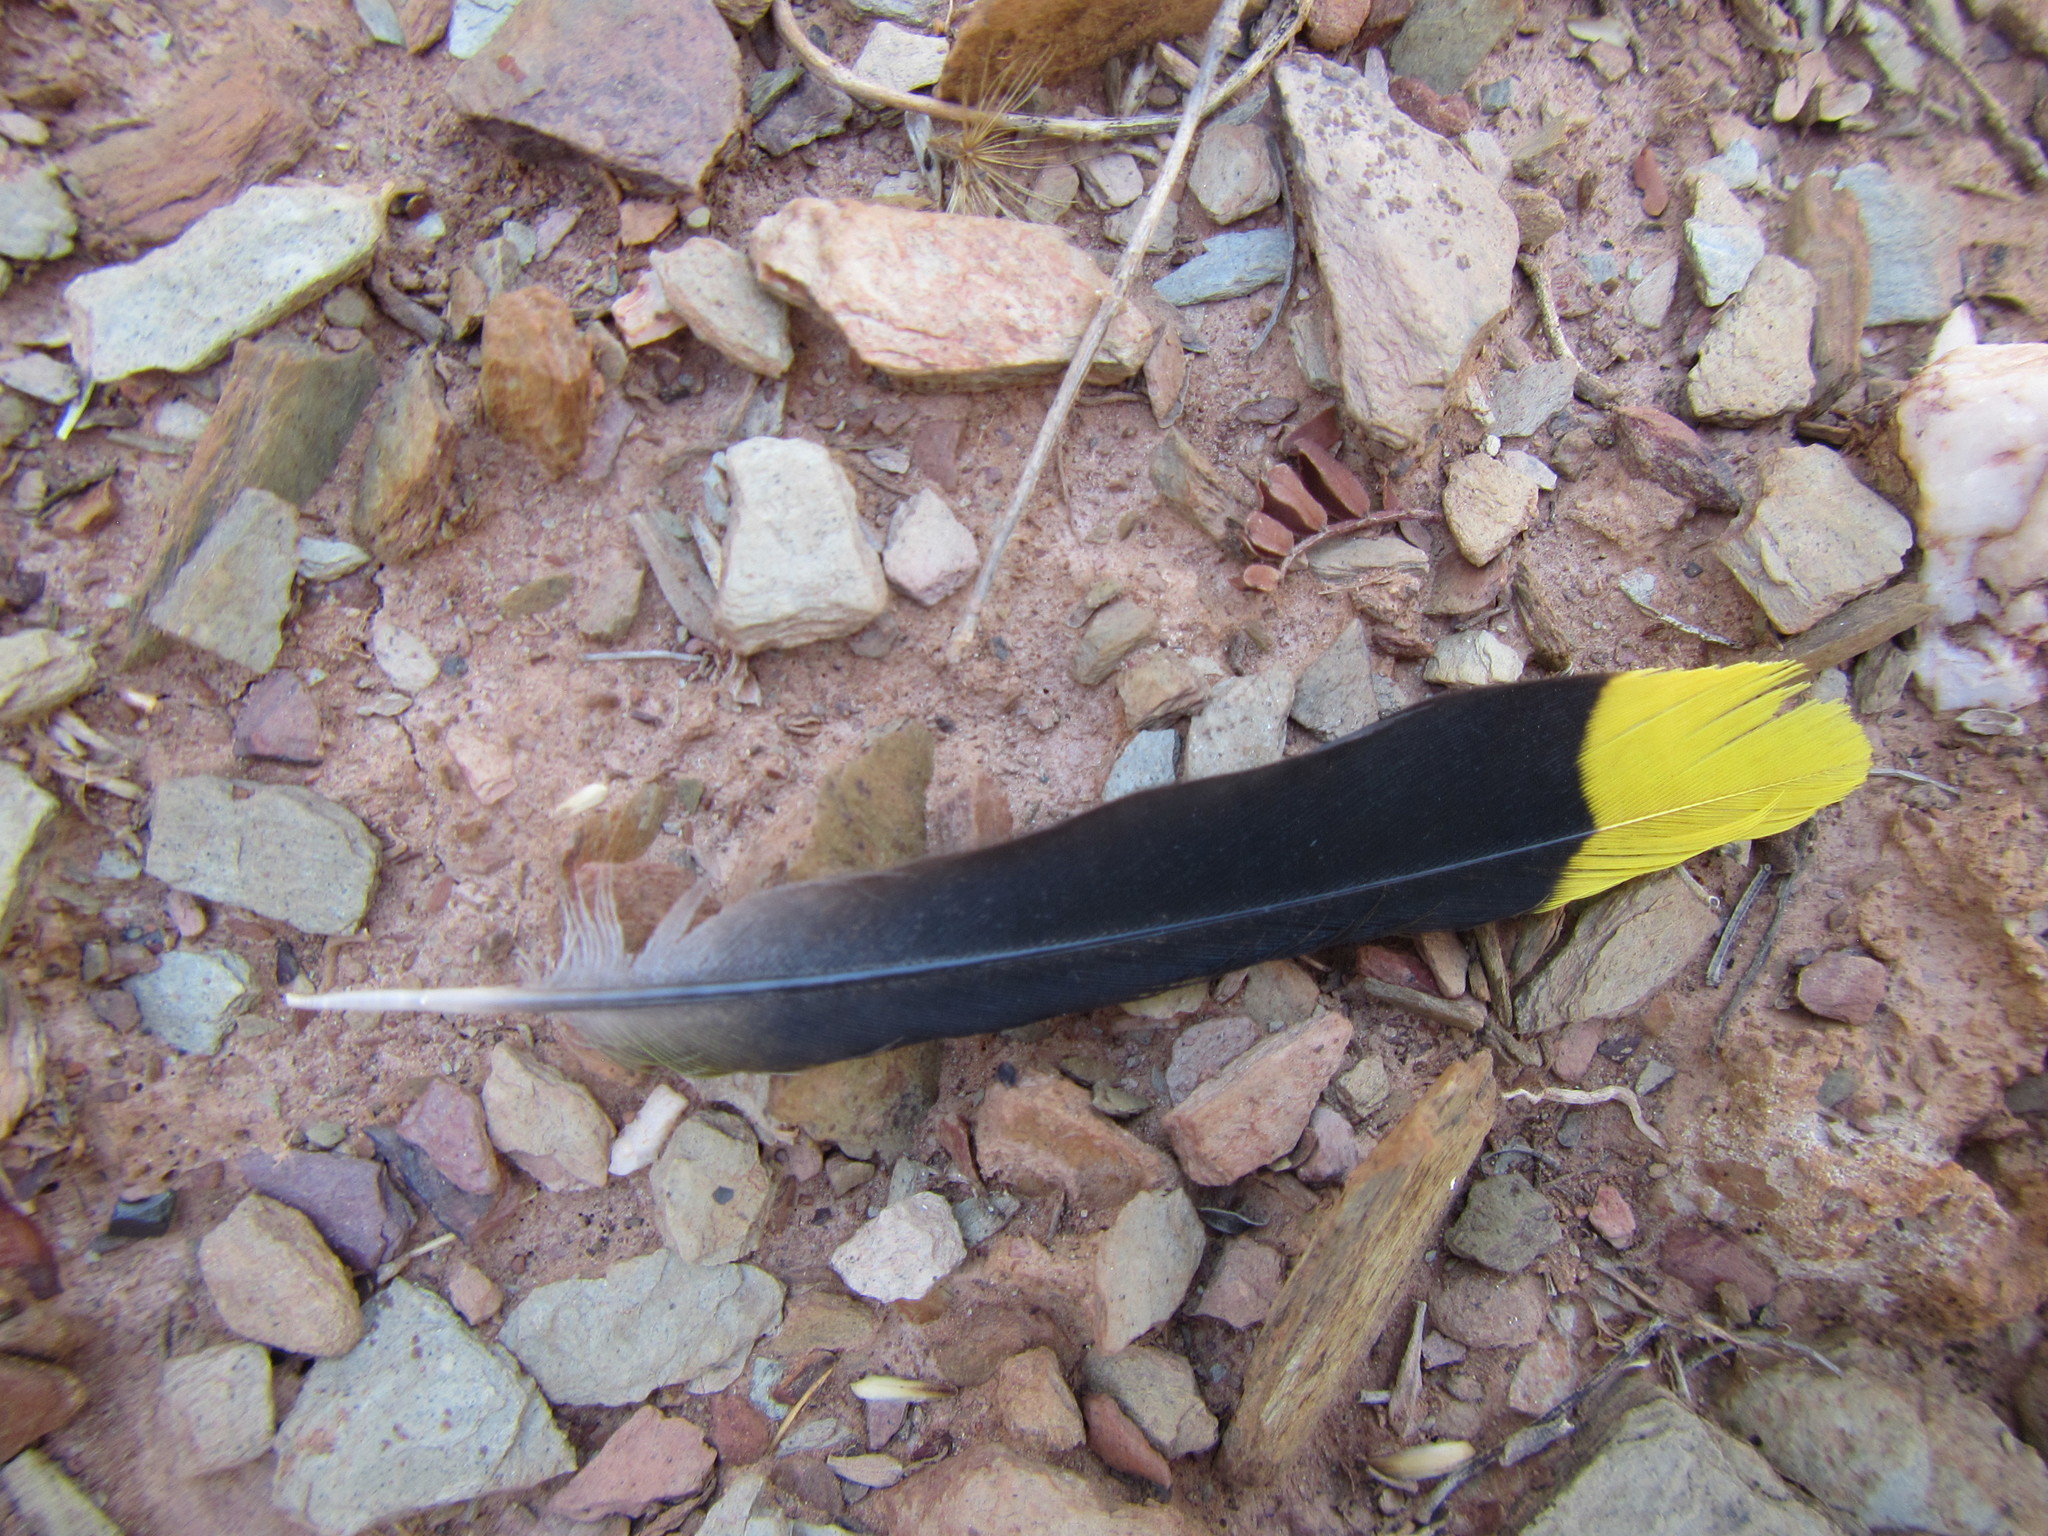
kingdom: Animalia
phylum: Chordata
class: Aves
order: Passeriformes
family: Malaconotidae
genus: Telophorus
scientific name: Telophorus zeylonus
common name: Bokmakierie
